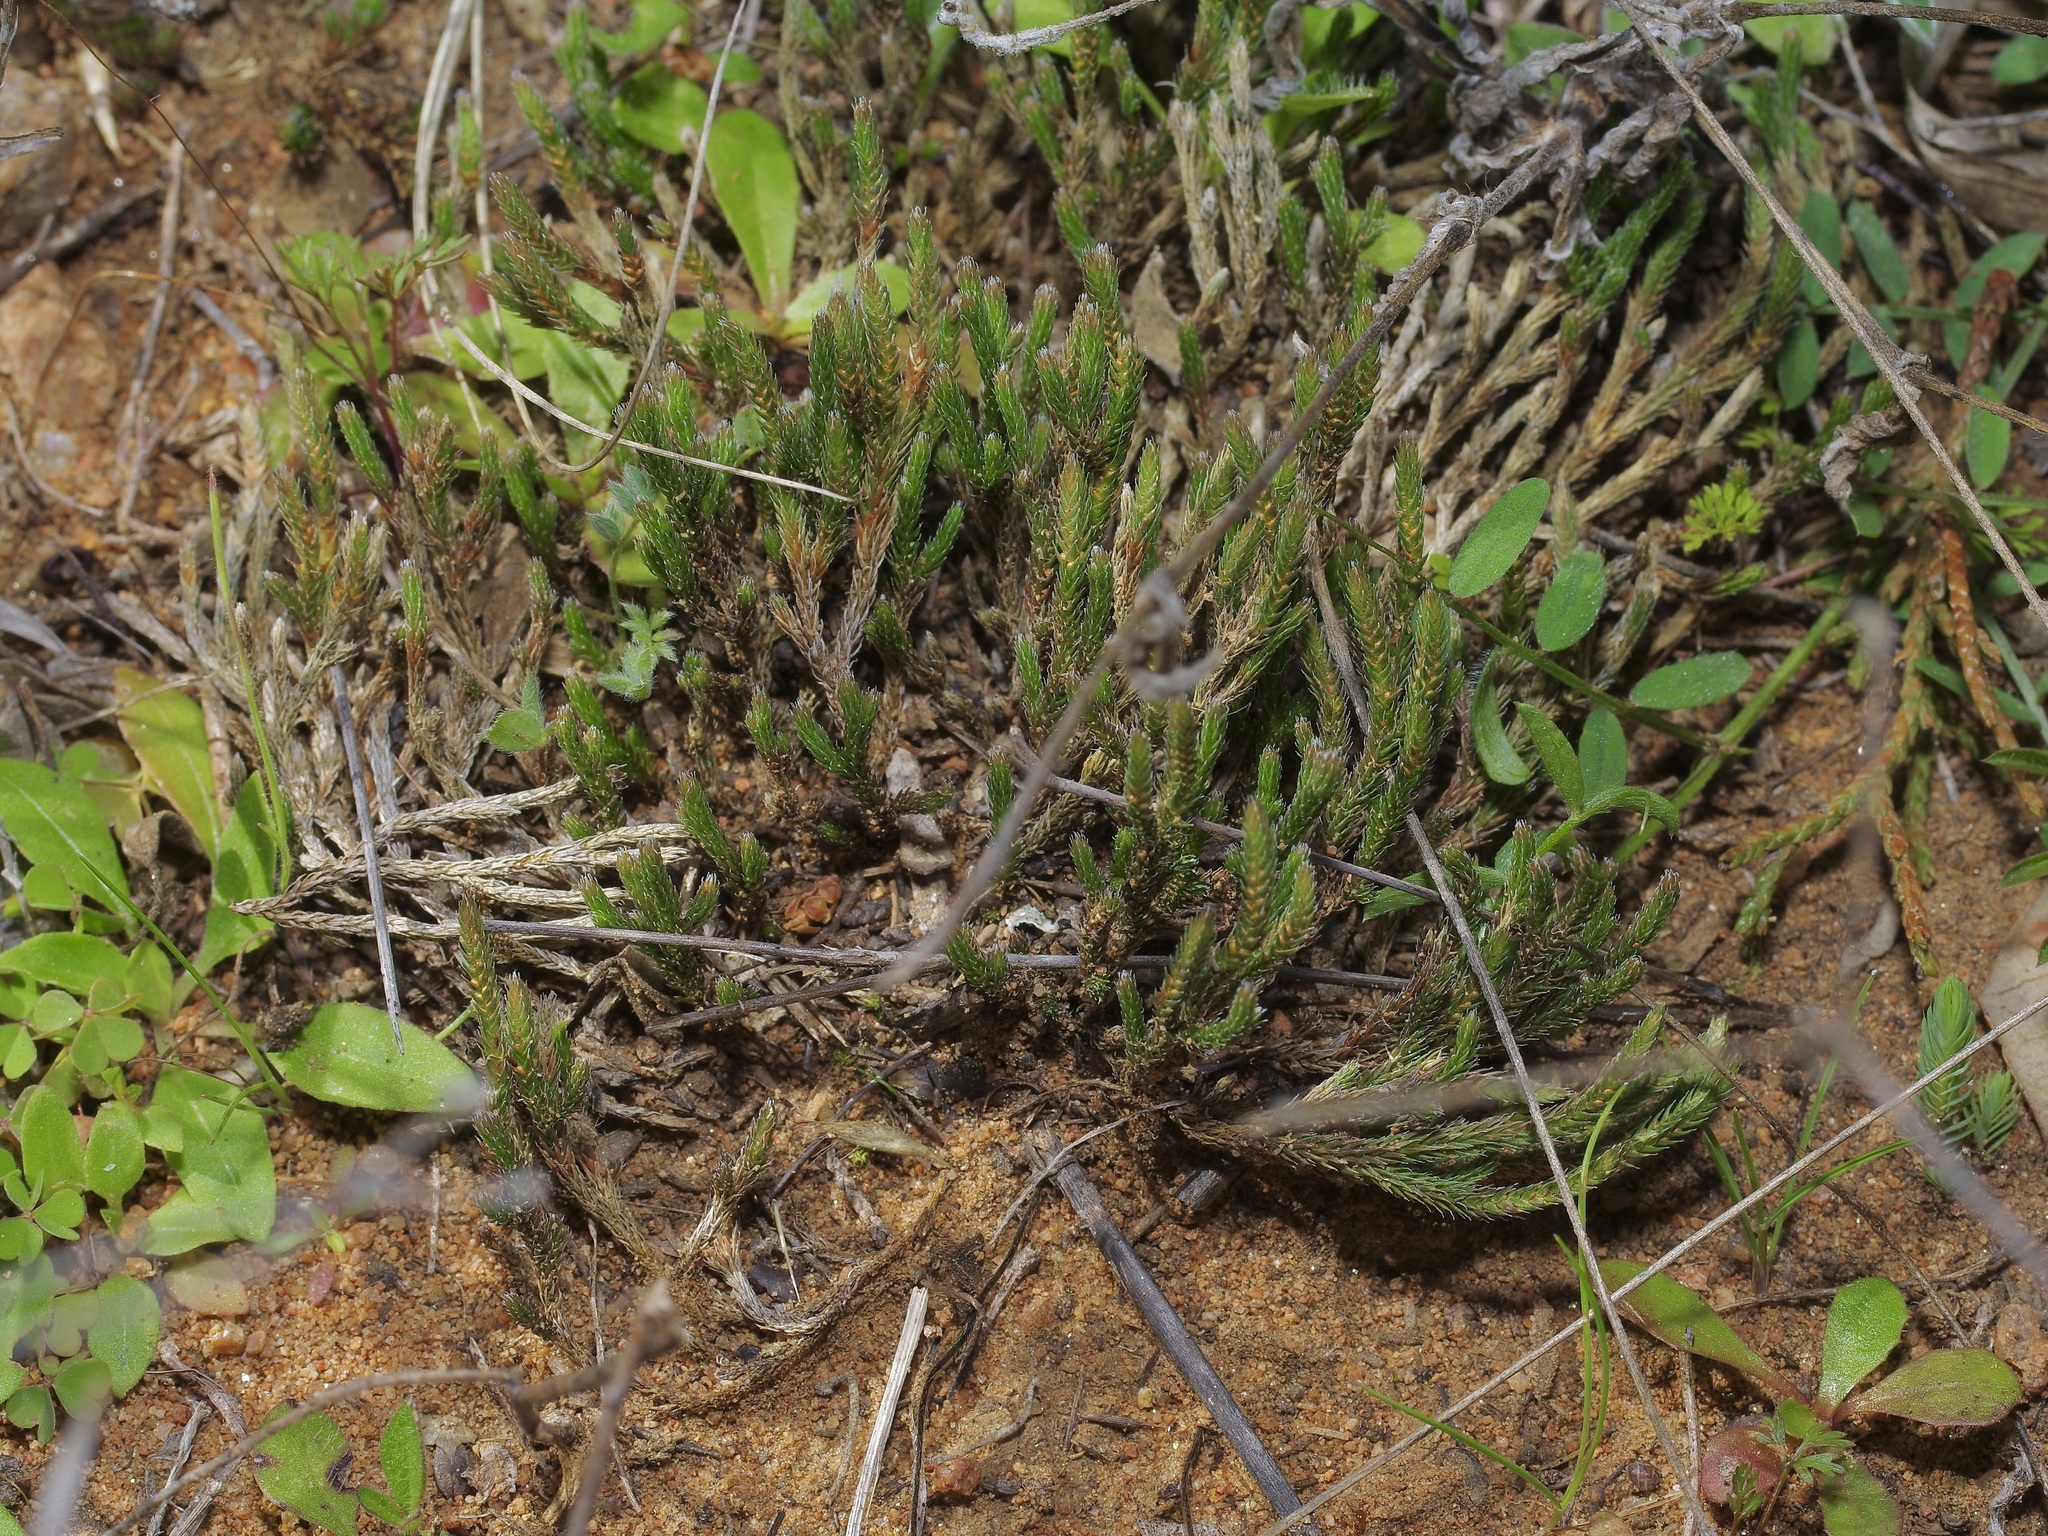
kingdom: Plantae
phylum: Tracheophyta
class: Lycopodiopsida
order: Selaginellales
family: Selaginellaceae
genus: Selaginella
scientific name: Selaginella corallina
